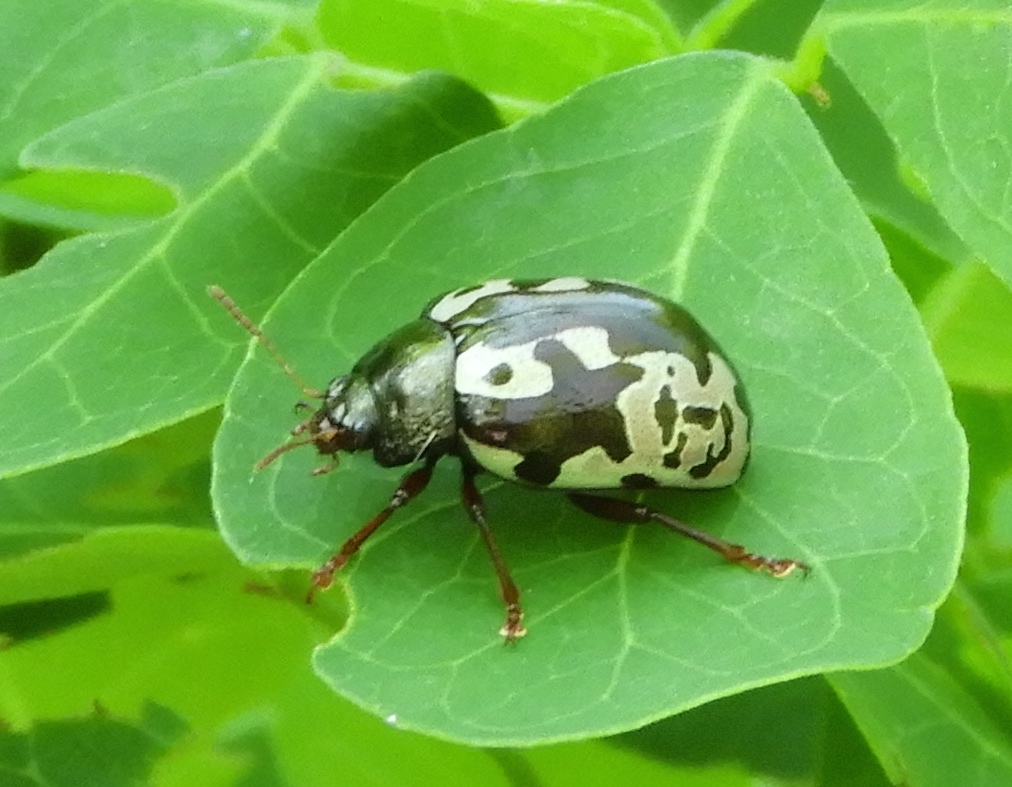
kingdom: Animalia
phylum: Arthropoda
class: Insecta
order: Coleoptera
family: Chrysomelidae
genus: Calligrapha
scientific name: Calligrapha intermedia
